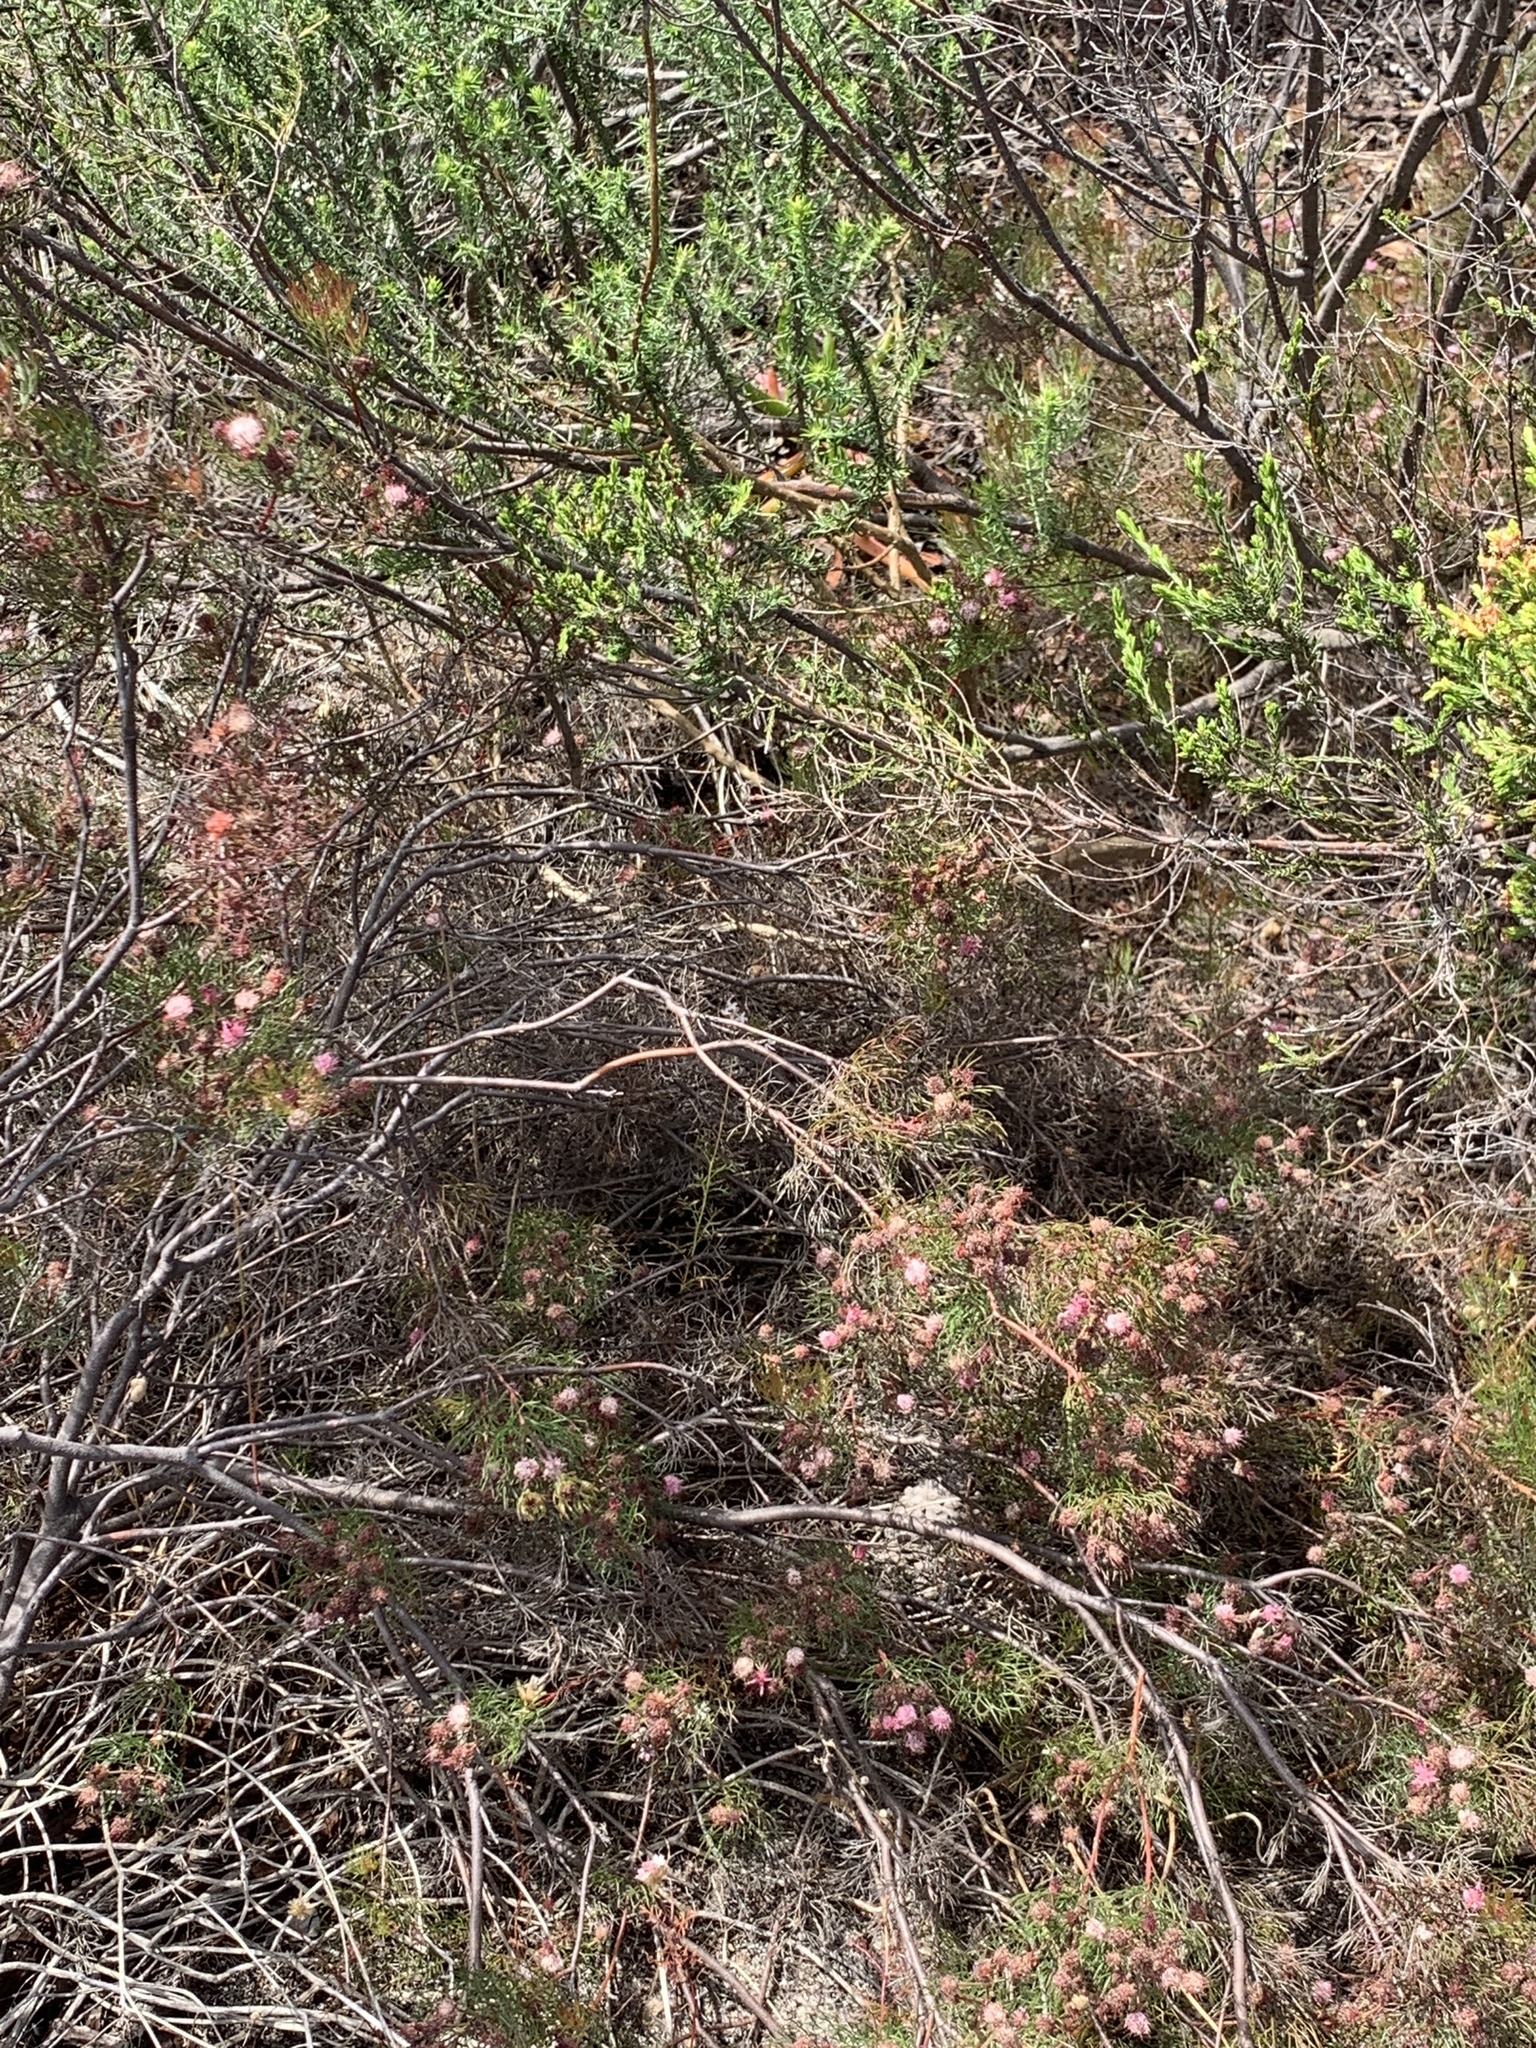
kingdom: Plantae
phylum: Tracheophyta
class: Magnoliopsida
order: Proteales
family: Proteaceae
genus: Serruria
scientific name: Serruria fasciflora
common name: Common pin spiderhead
